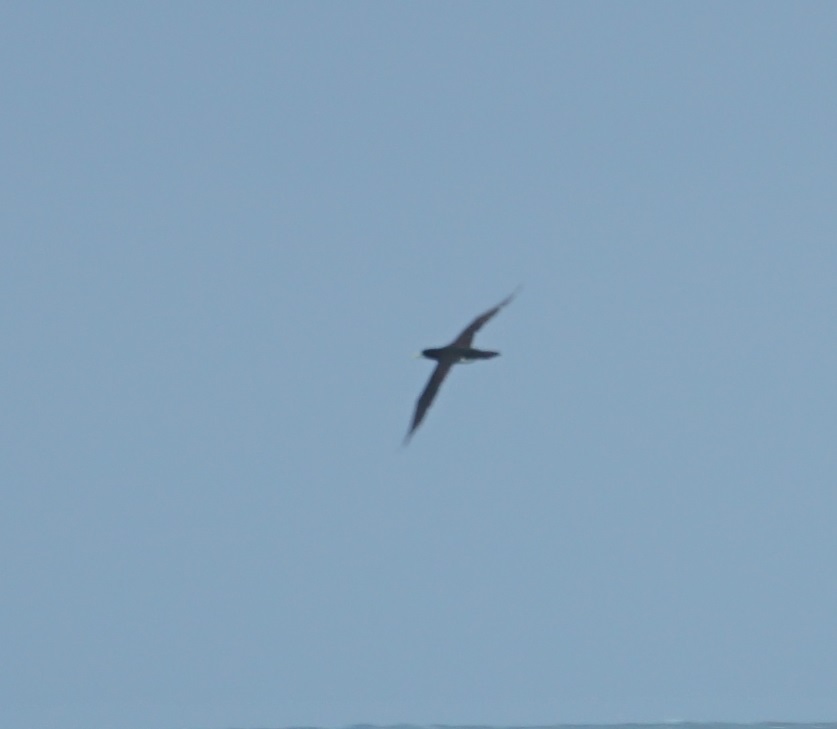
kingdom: Animalia
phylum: Chordata
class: Aves
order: Suliformes
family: Sulidae
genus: Sula
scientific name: Sula leucogaster
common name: Brown booby
